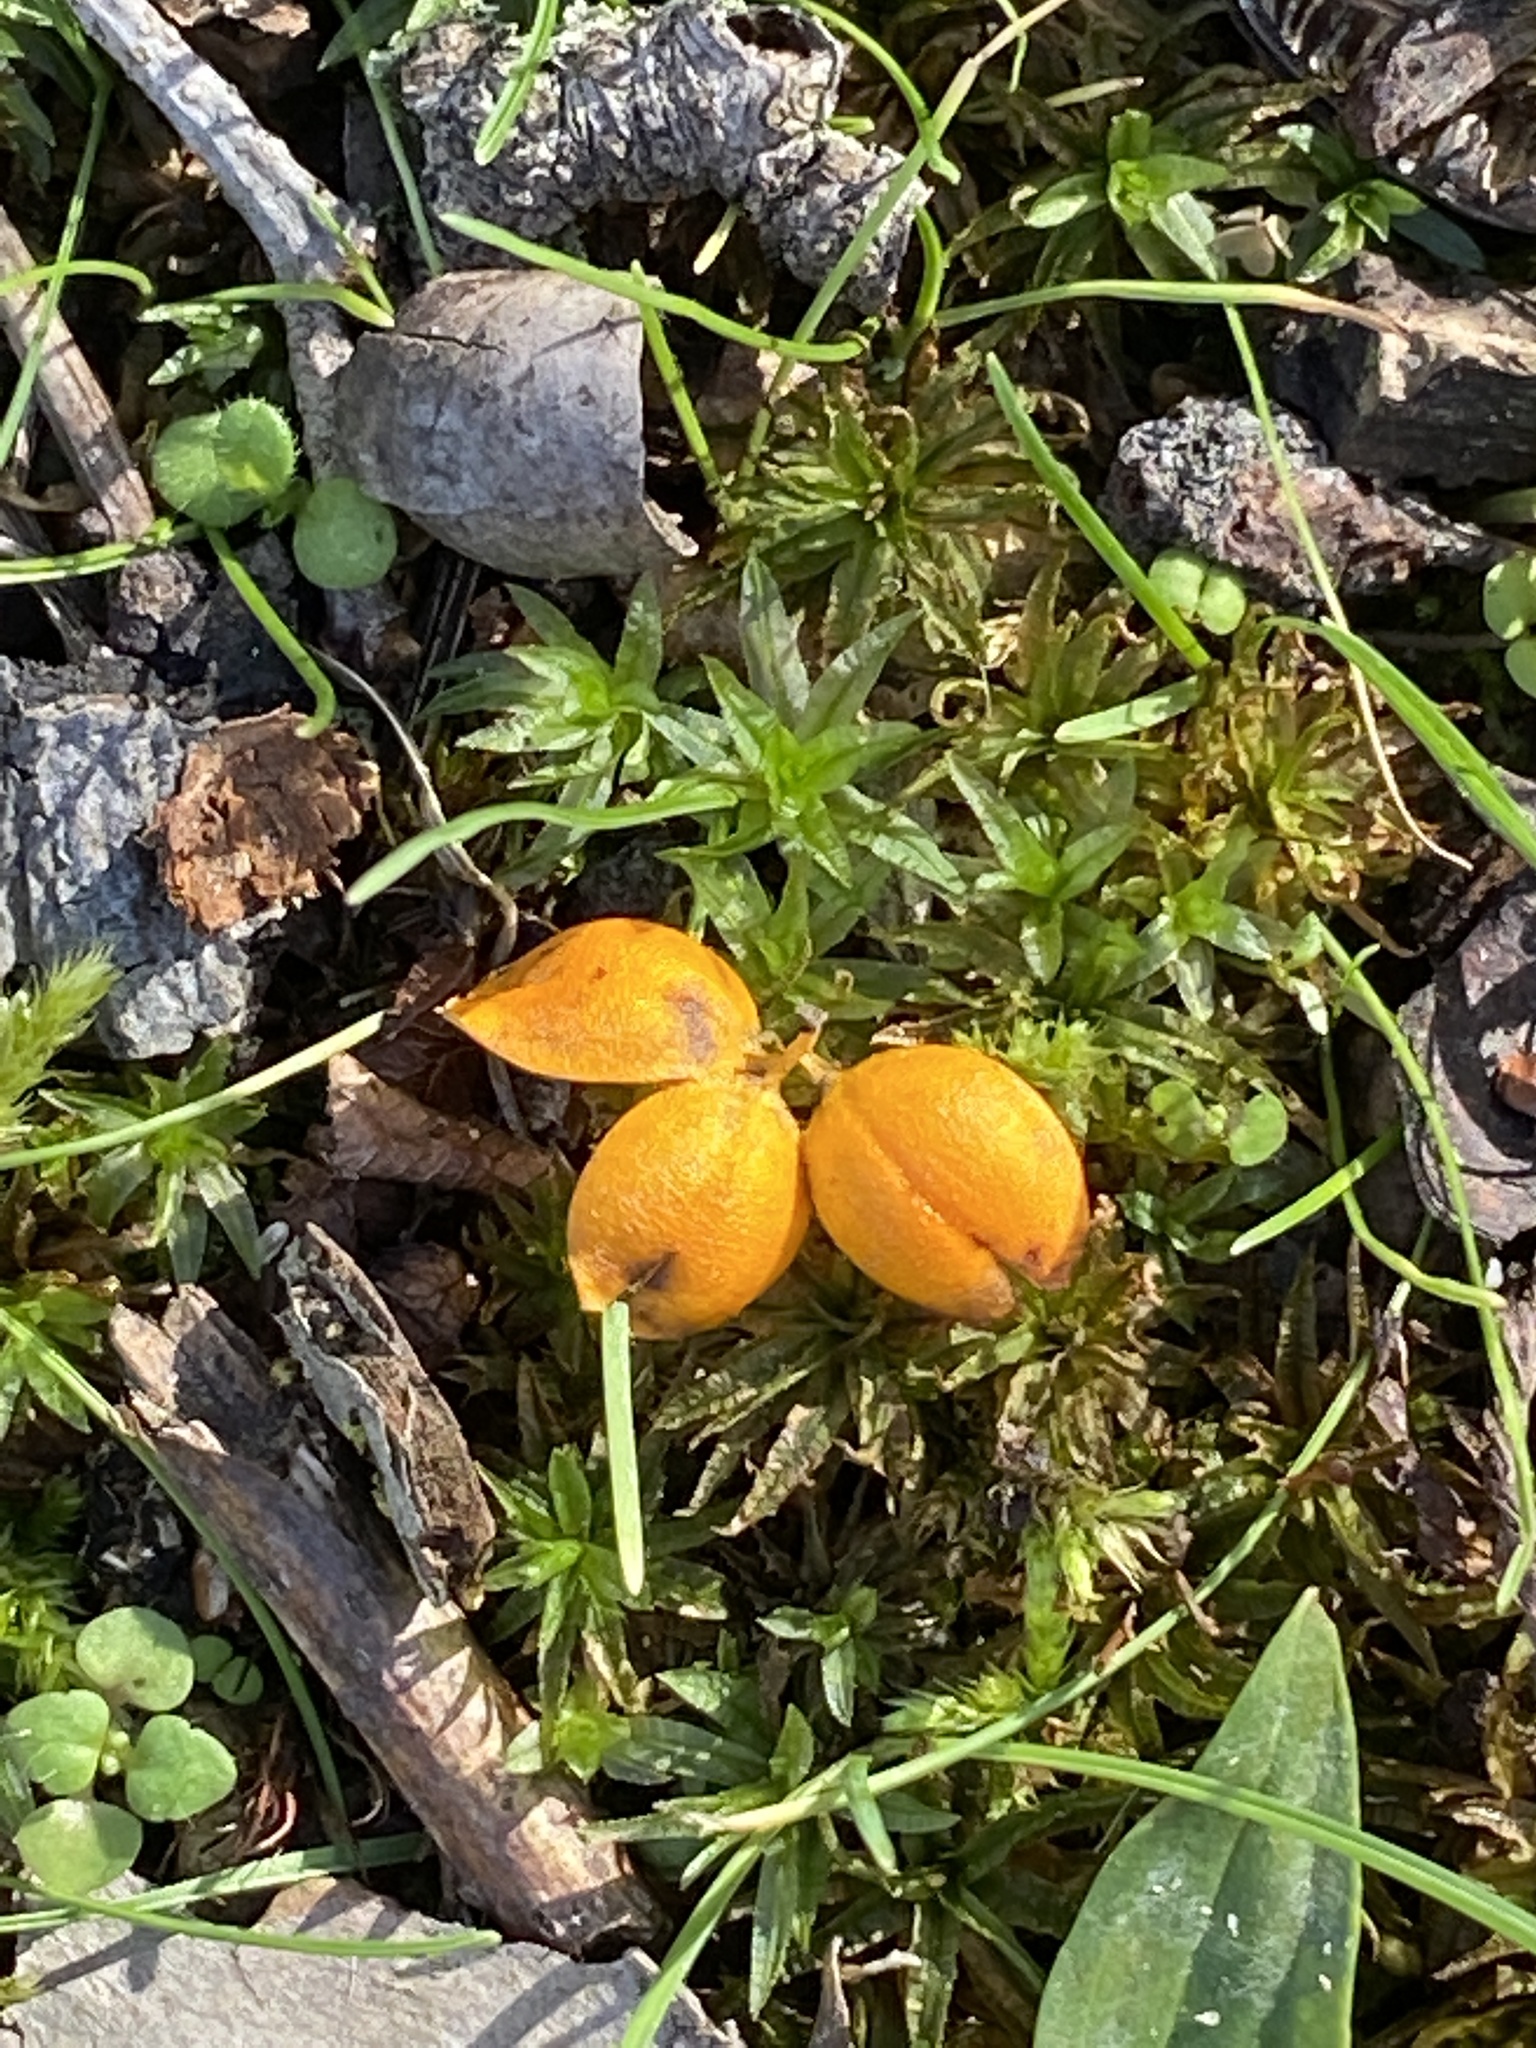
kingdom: Plantae
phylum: Tracheophyta
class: Magnoliopsida
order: Celastrales
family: Celastraceae
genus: Celastrus
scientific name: Celastrus orbiculatus
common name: Oriental bittersweet
